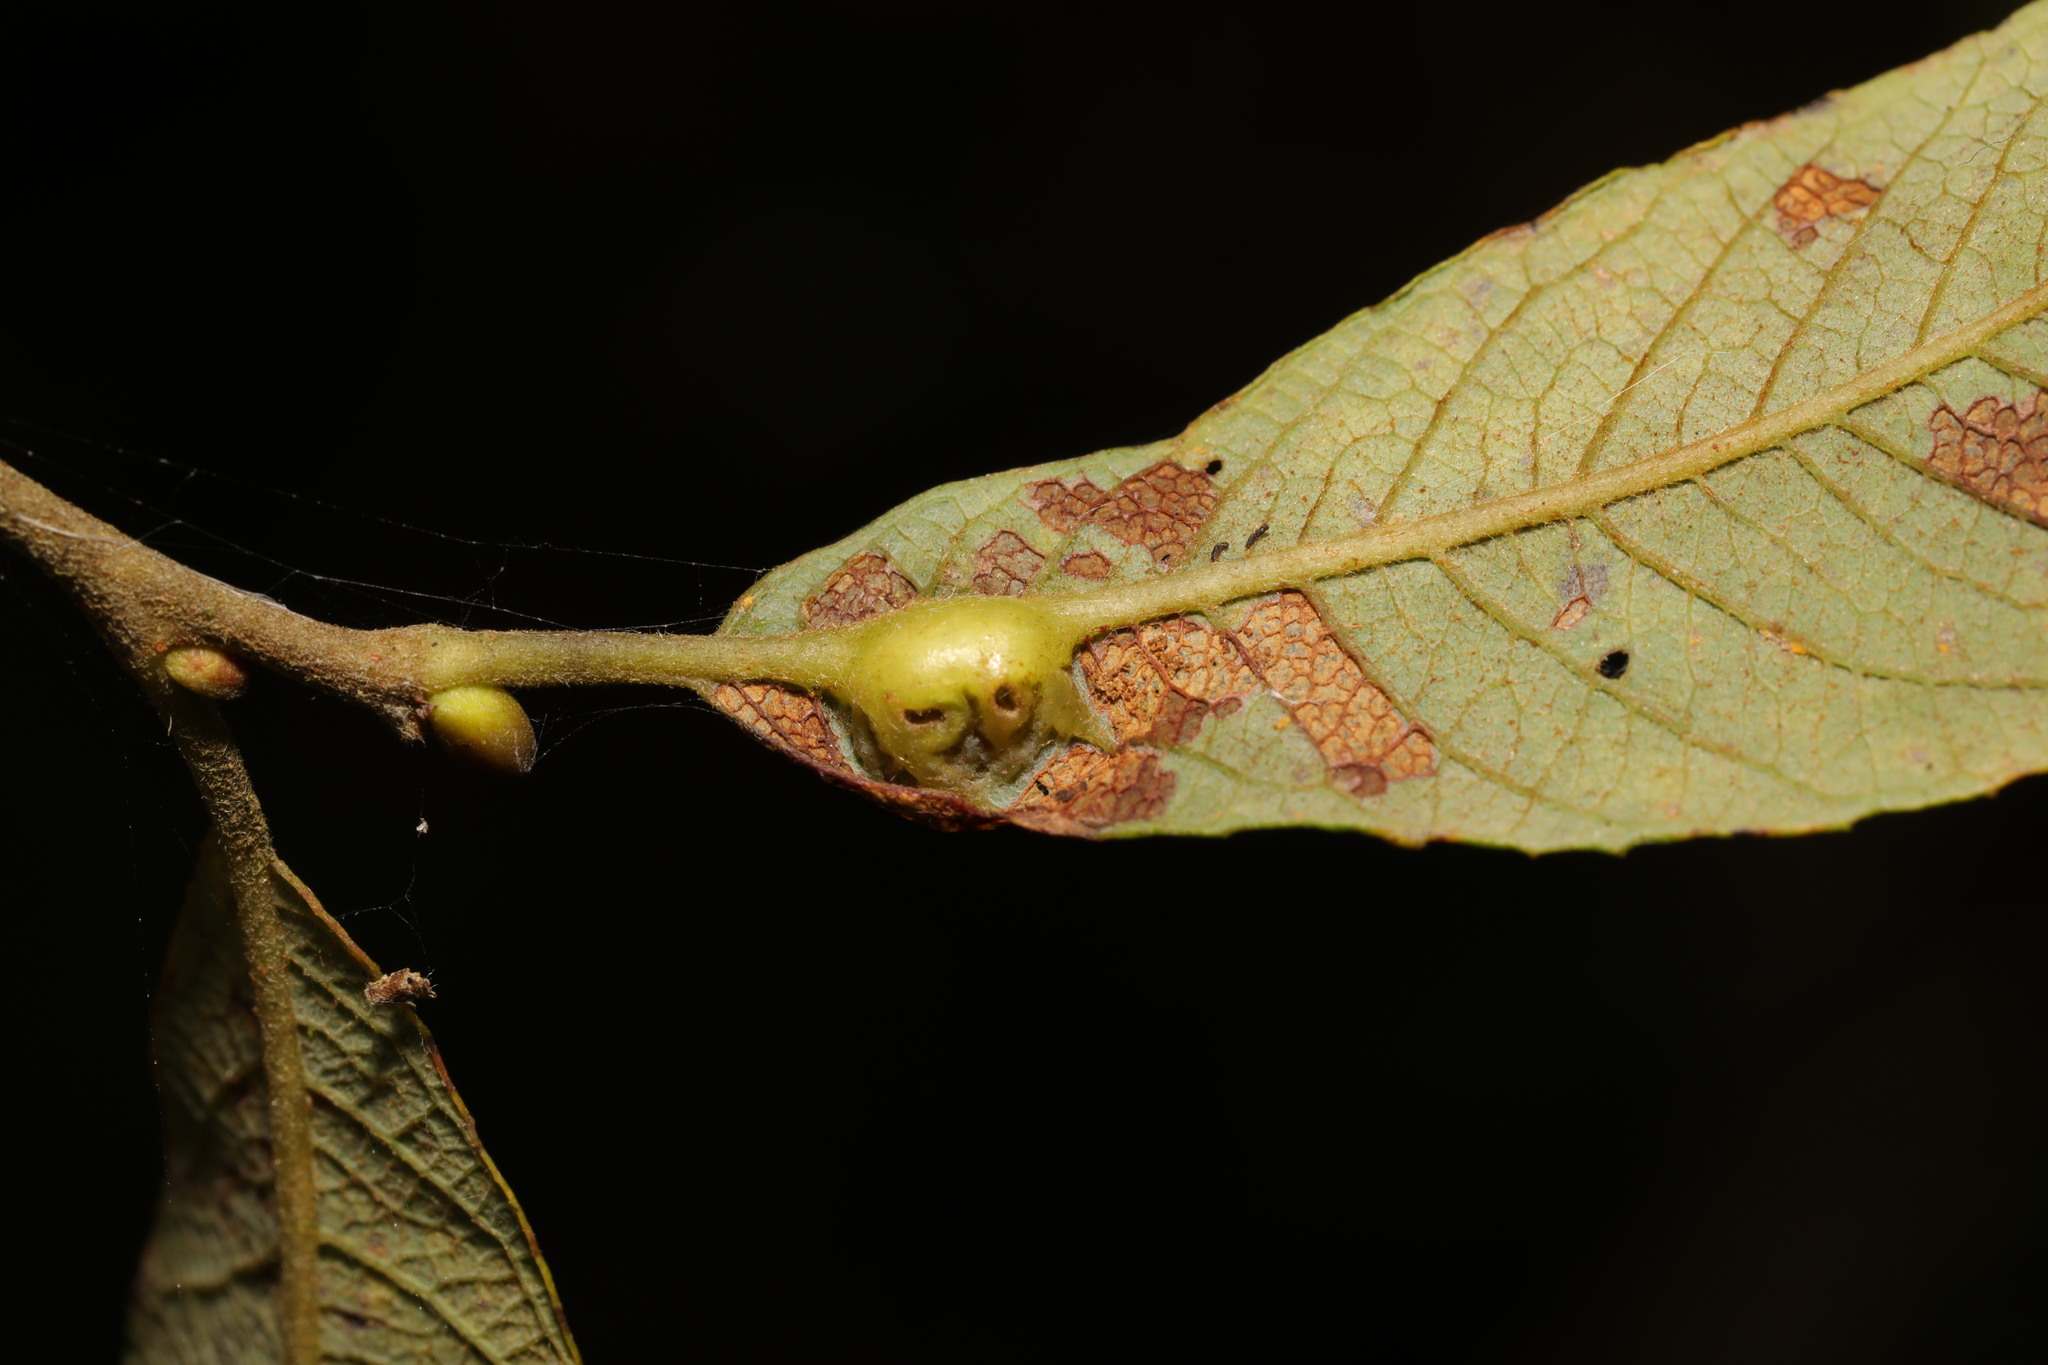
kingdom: Animalia
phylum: Arthropoda
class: Insecta
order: Diptera
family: Cecidomyiidae
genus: Iteomyia
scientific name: Iteomyia major
